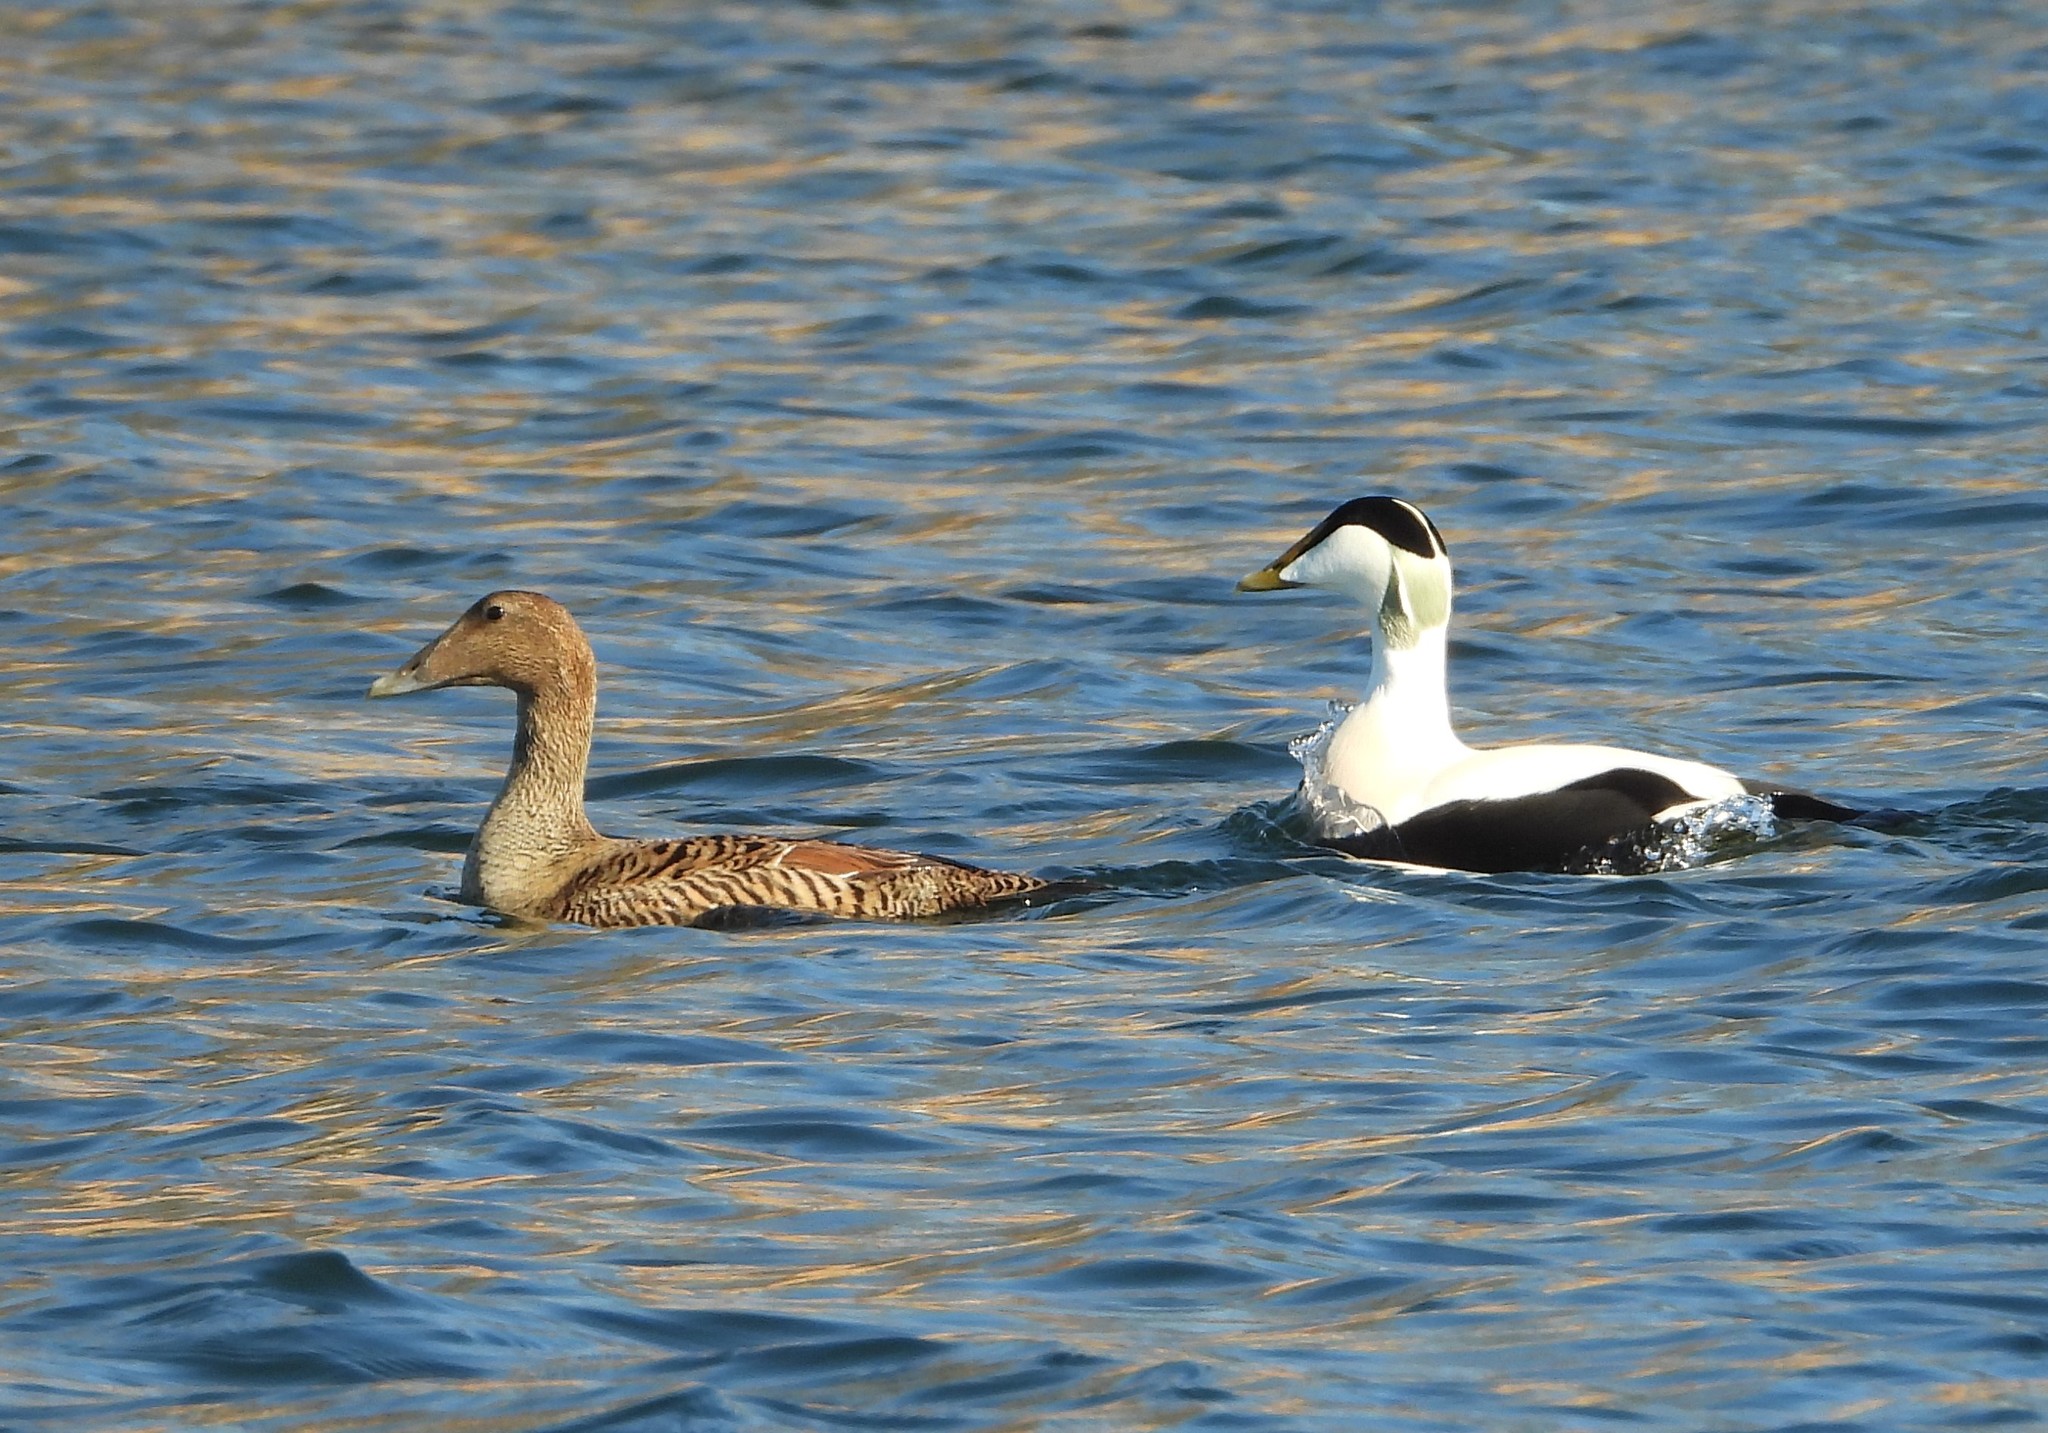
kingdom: Animalia
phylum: Chordata
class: Aves
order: Anseriformes
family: Anatidae
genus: Somateria
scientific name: Somateria mollissima
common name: Common eider
